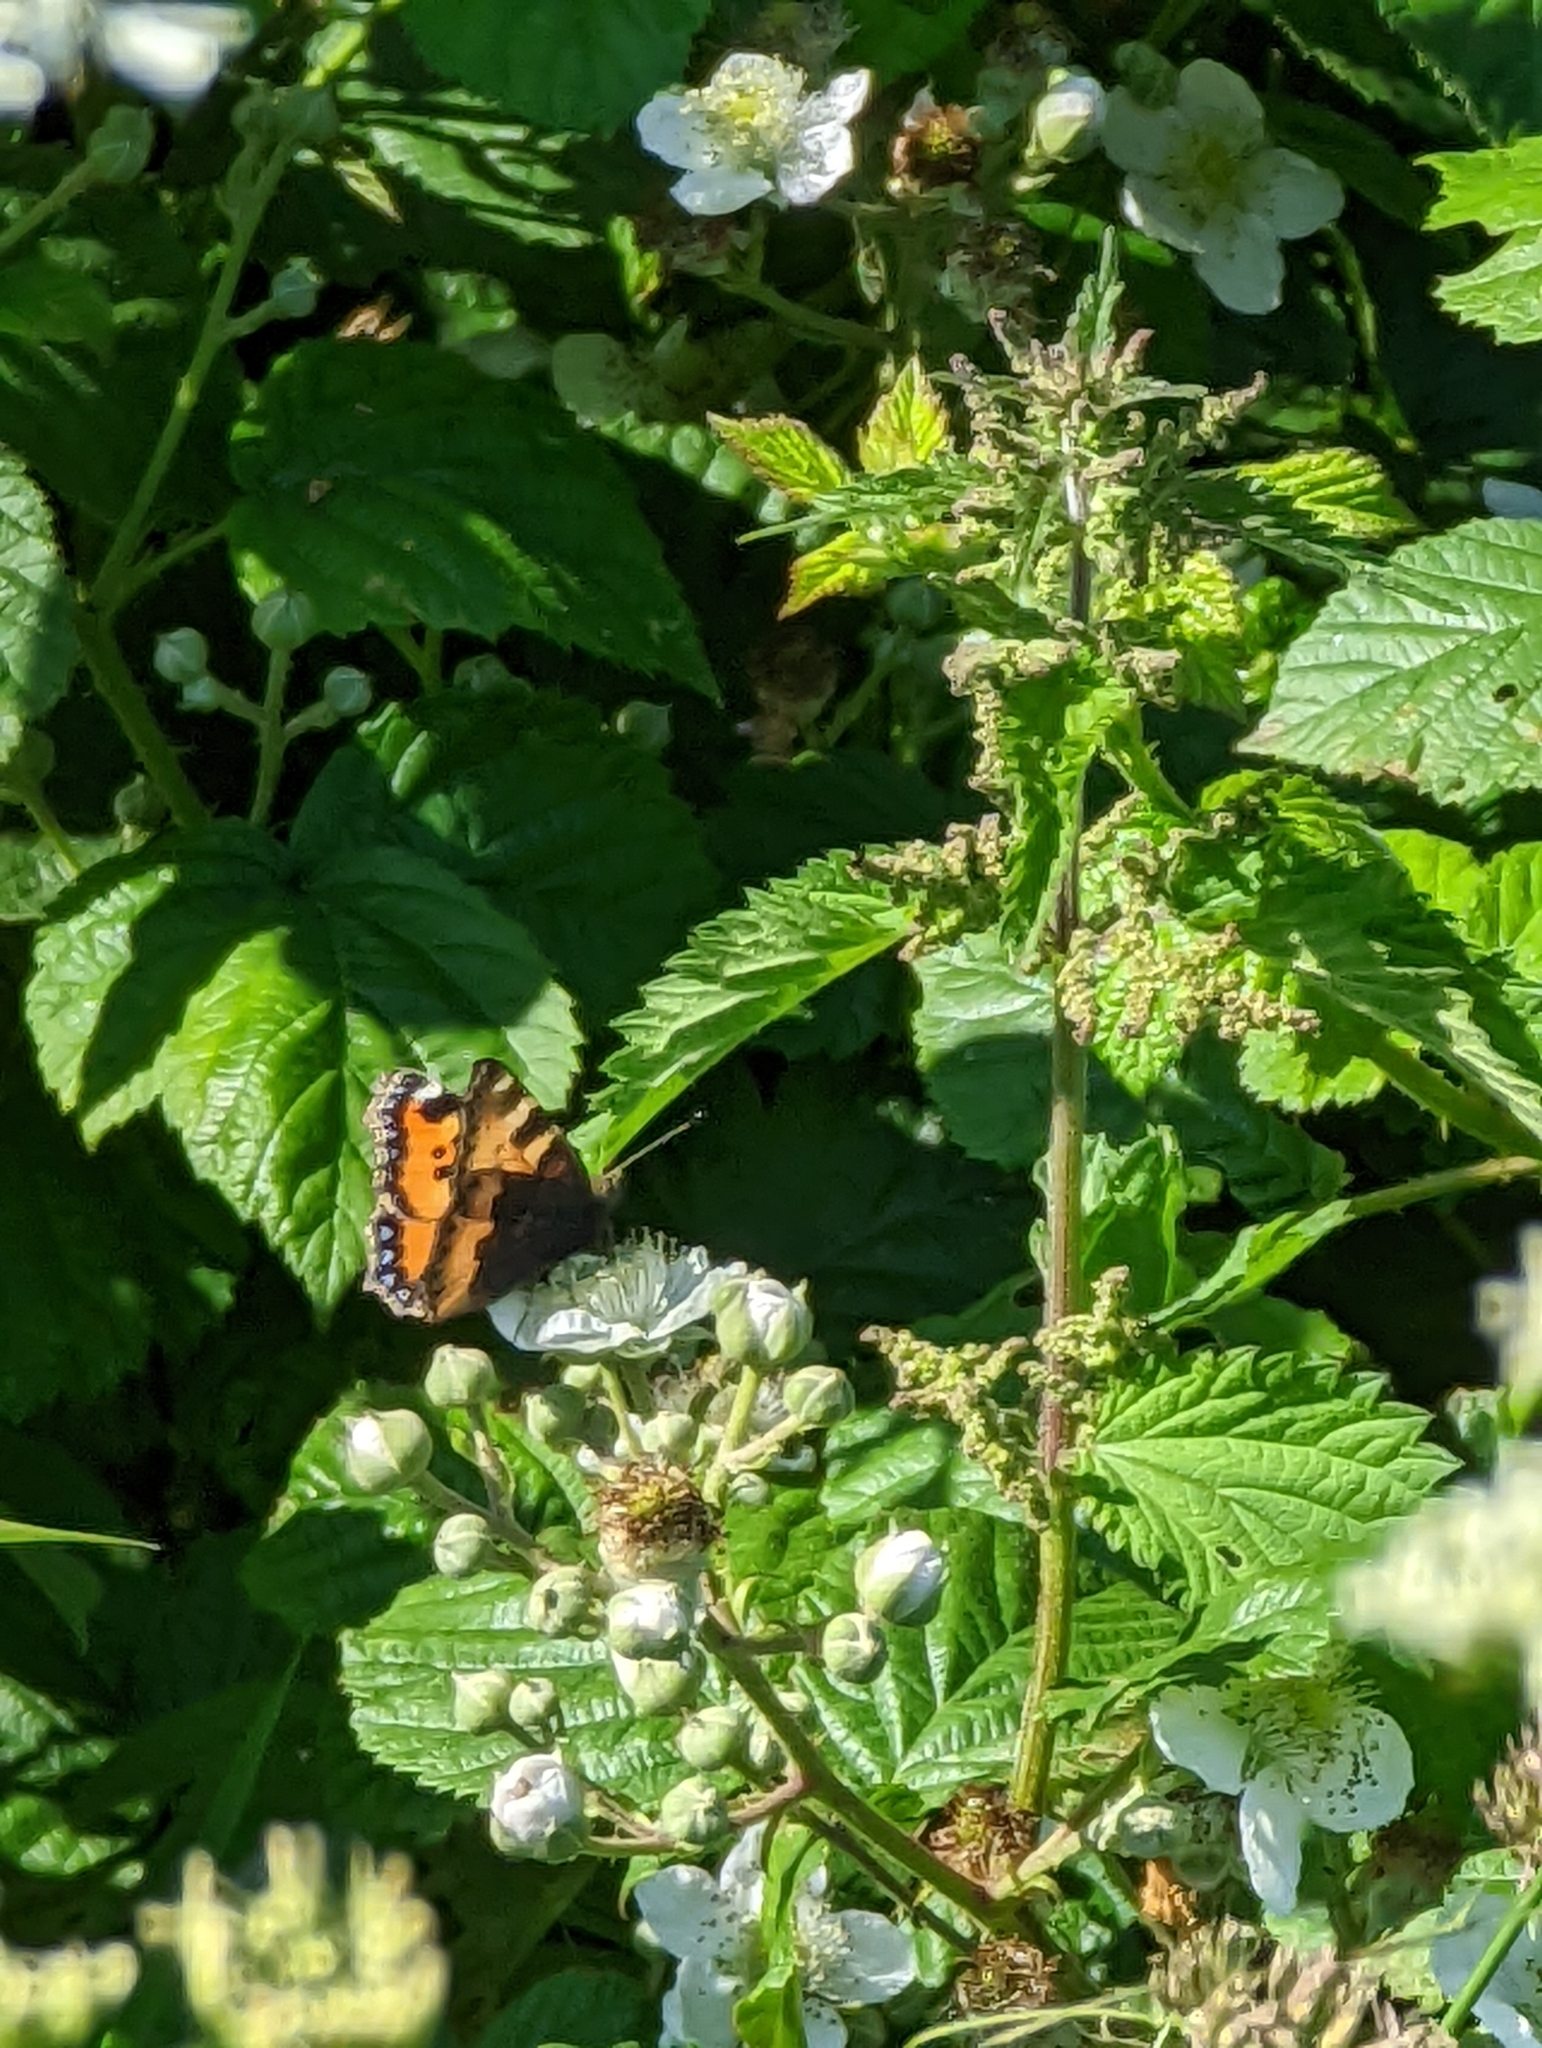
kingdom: Animalia
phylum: Arthropoda
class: Insecta
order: Lepidoptera
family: Nymphalidae
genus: Aglais
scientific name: Aglais urticae
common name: Small tortoiseshell
